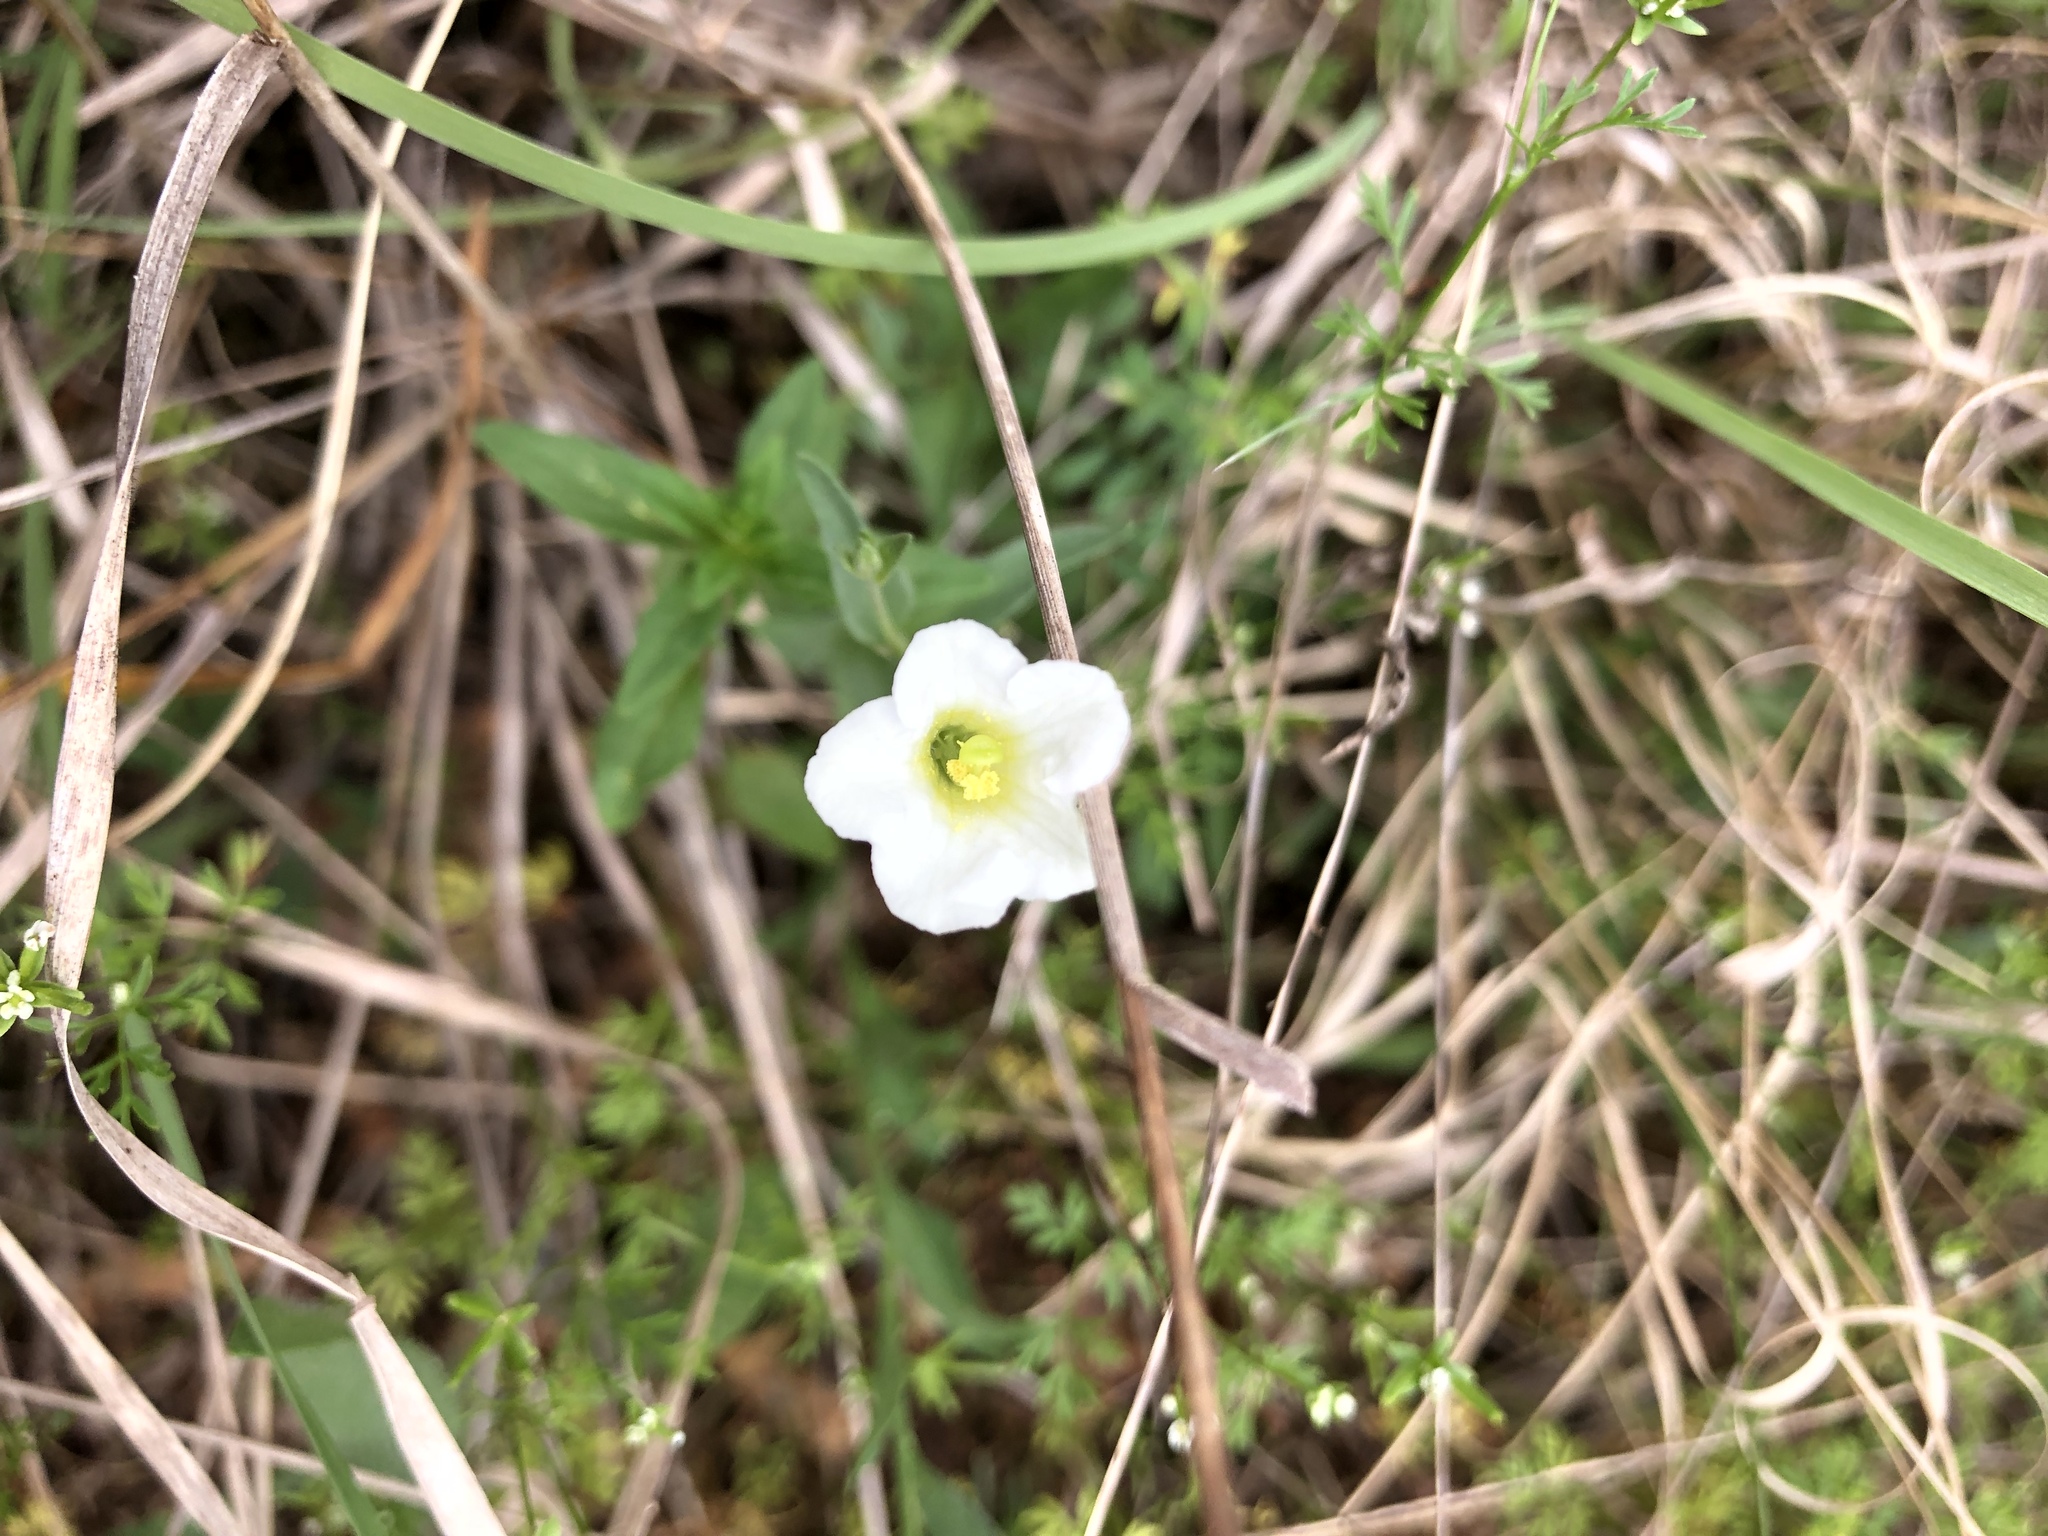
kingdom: Plantae
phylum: Tracheophyta
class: Magnoliopsida
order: Solanales
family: Solanaceae
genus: Salpiglossis
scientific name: Salpiglossis erecta
